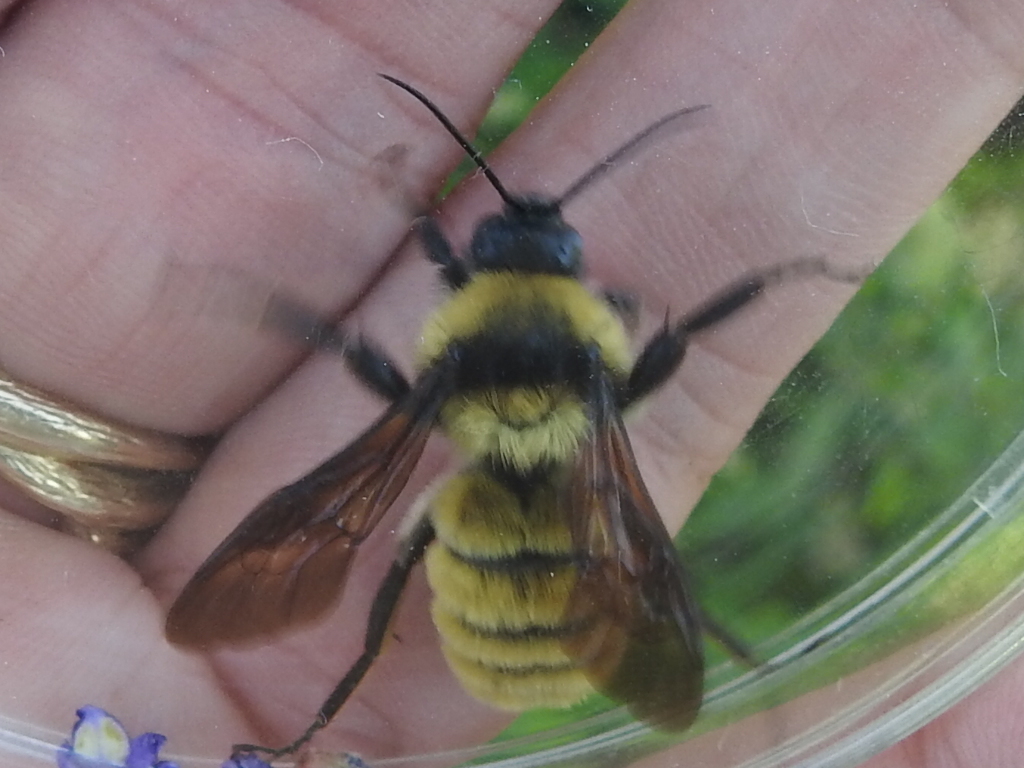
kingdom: Animalia
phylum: Arthropoda
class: Insecta
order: Hymenoptera
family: Apidae
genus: Bombus
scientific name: Bombus pensylvanicus
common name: Bumble bee
